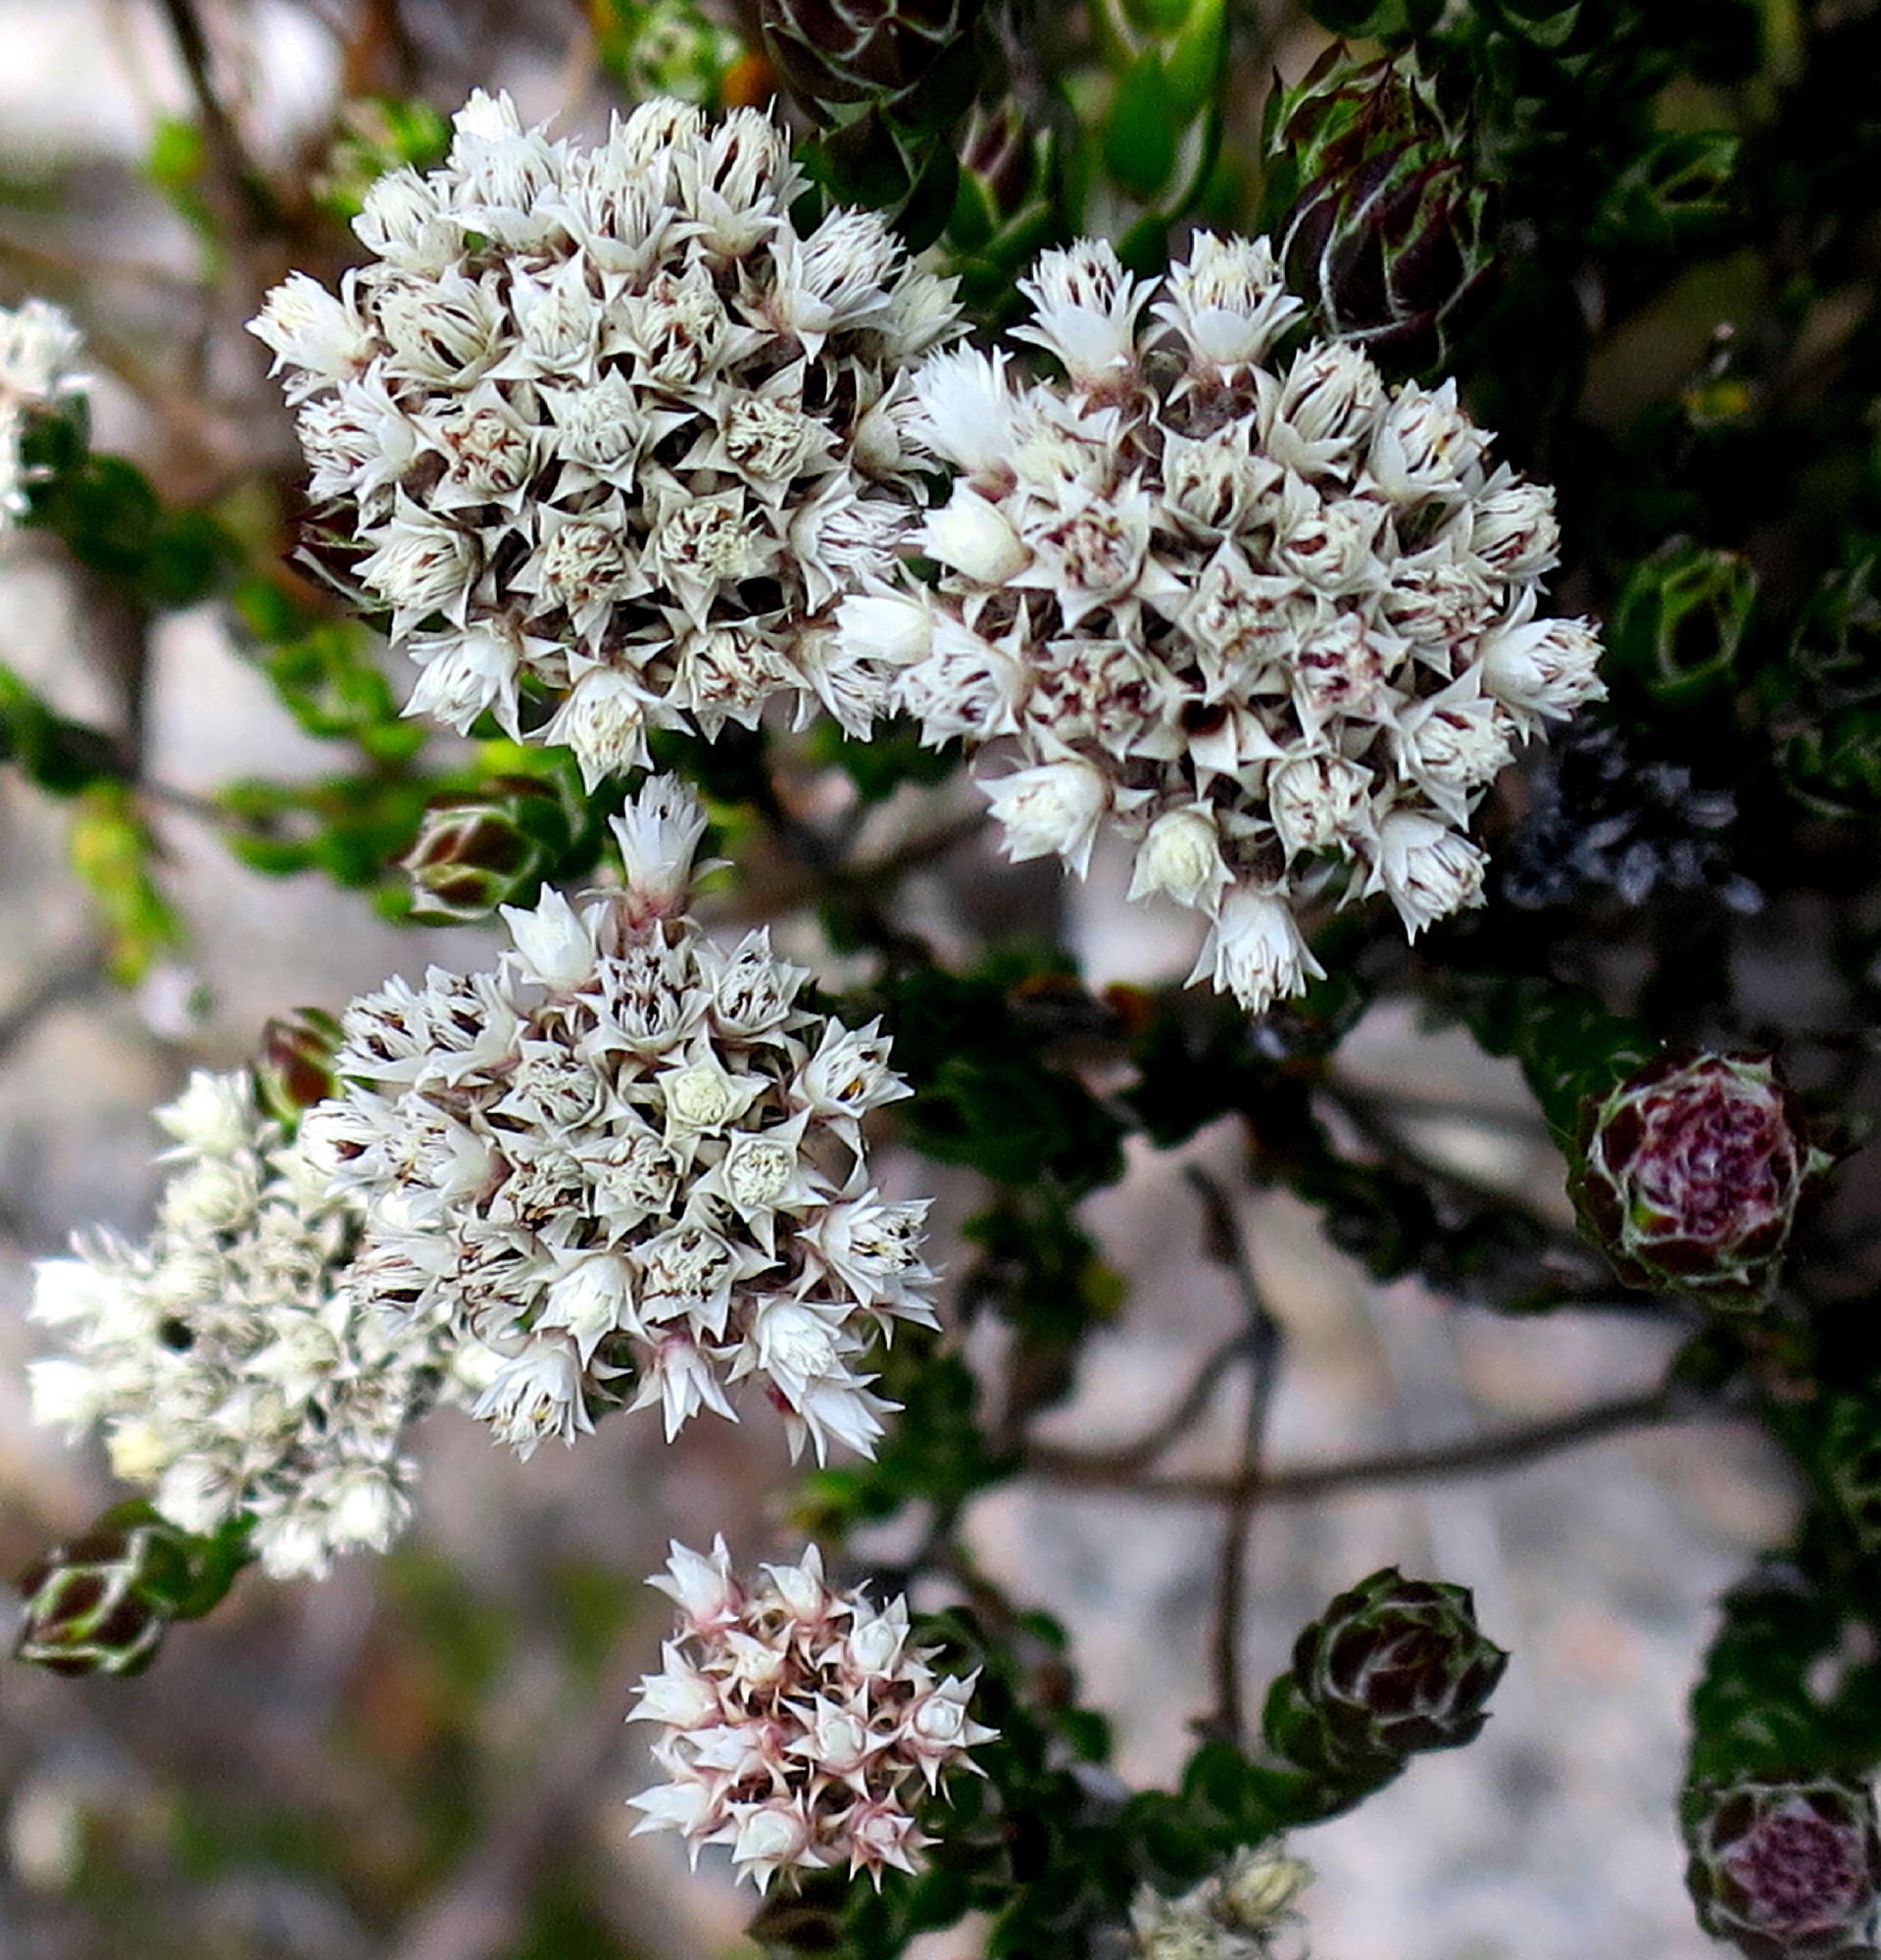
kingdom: Plantae
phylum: Tracheophyta
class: Magnoliopsida
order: Asterales
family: Asteraceae
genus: Metalasia
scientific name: Metalasia pulcherrima
